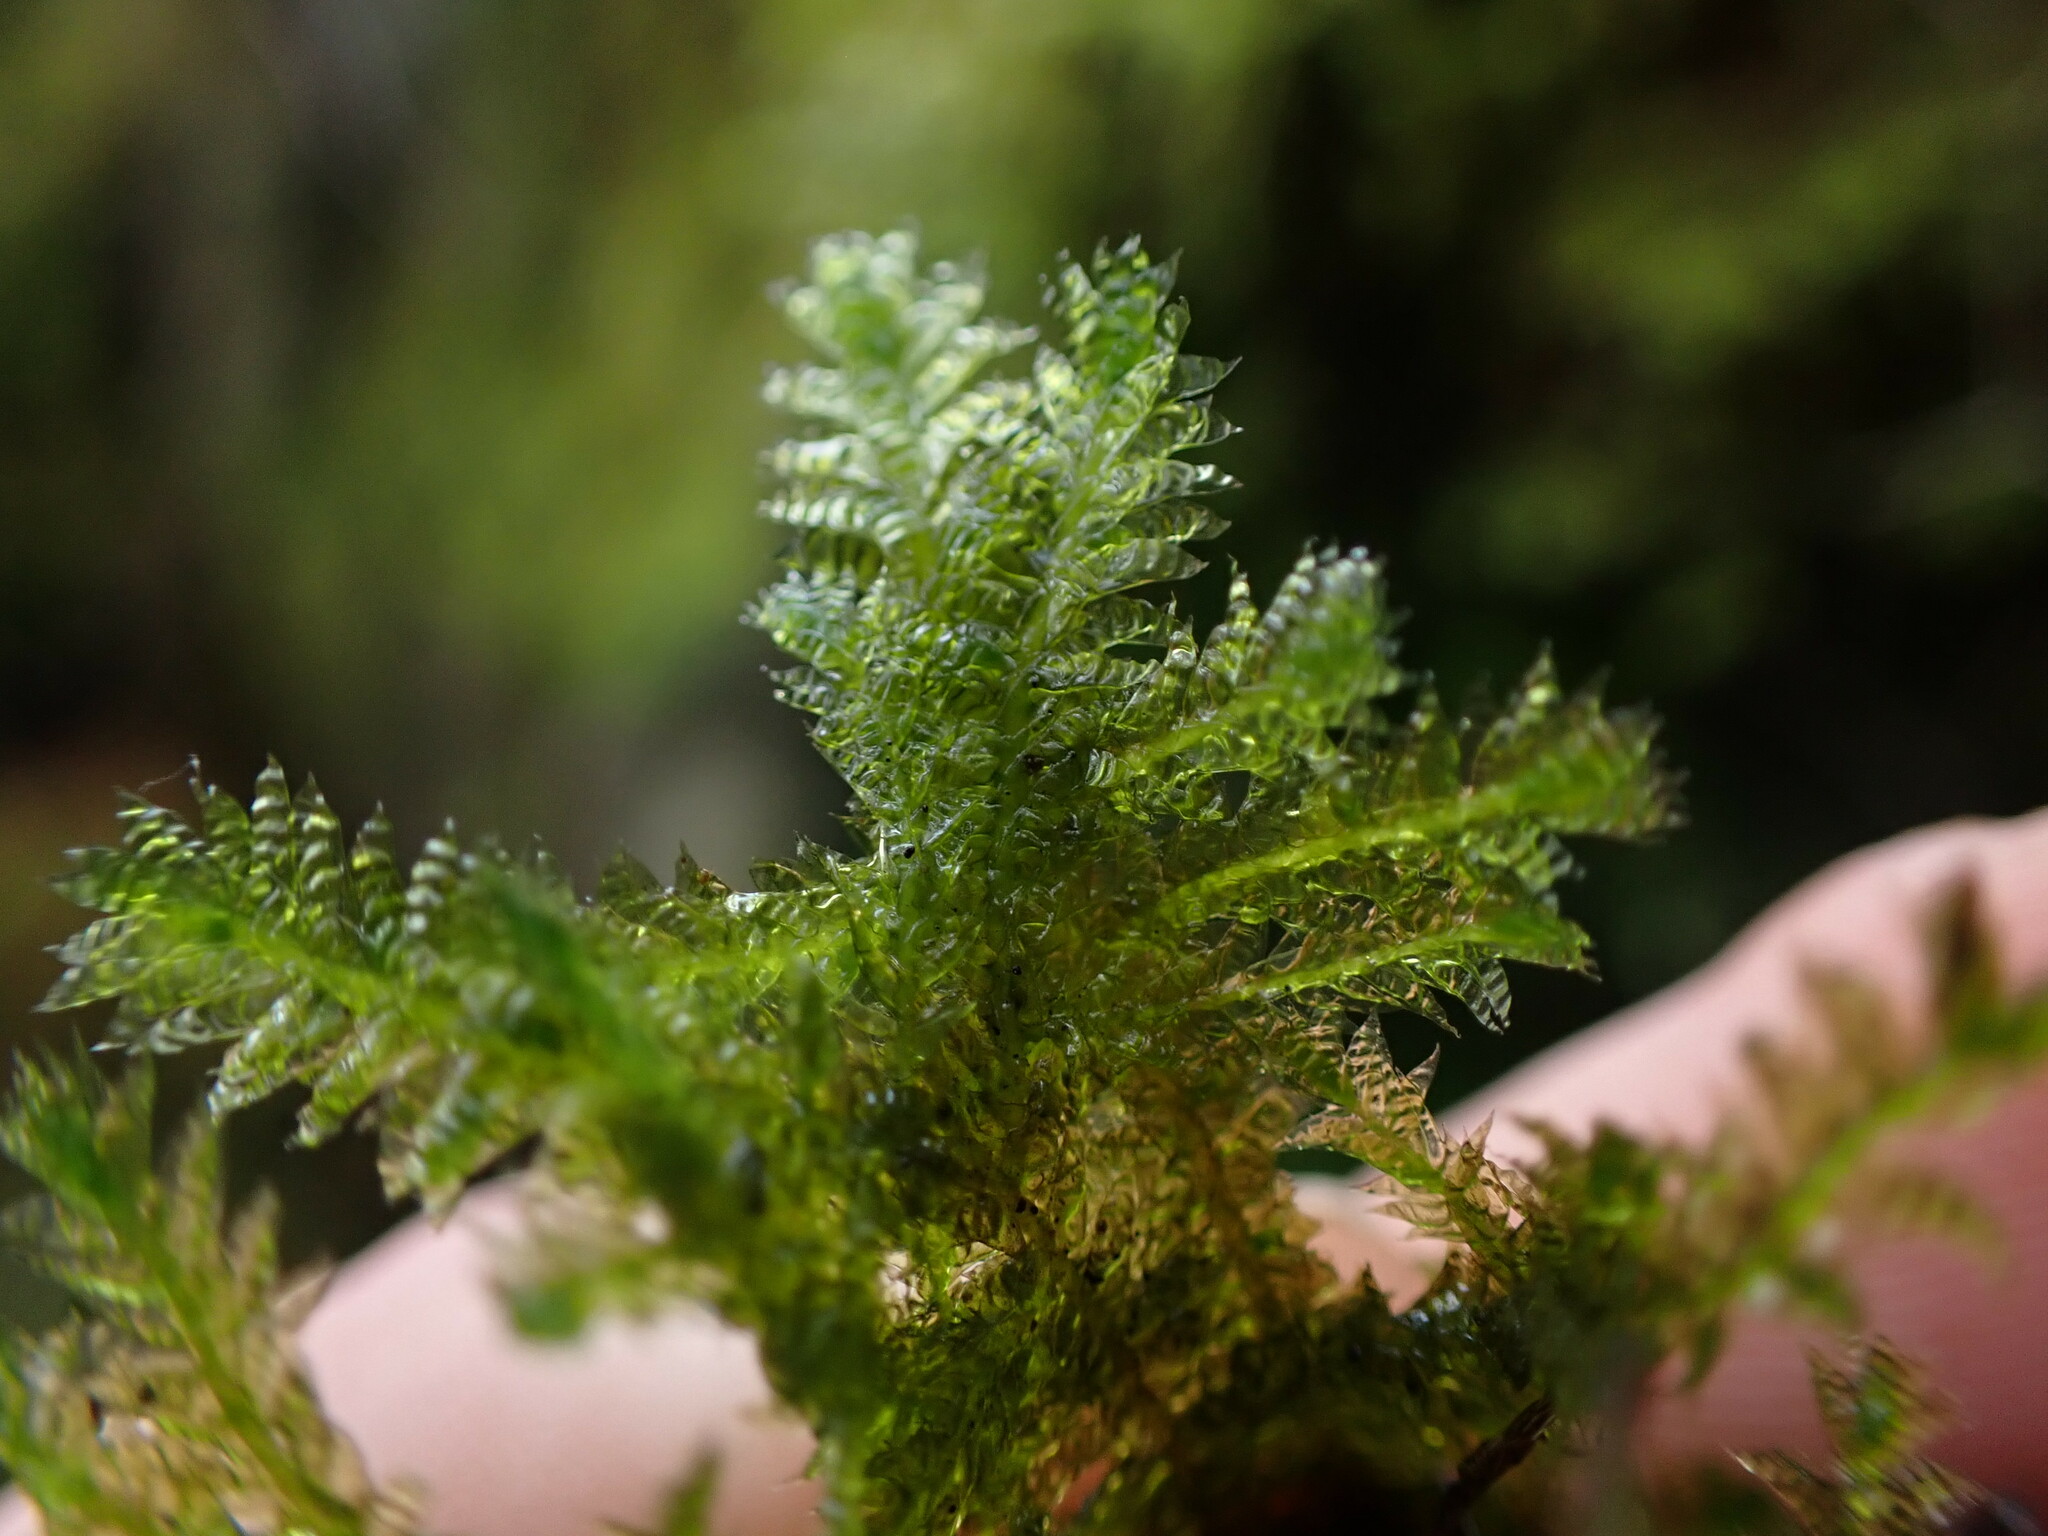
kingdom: Plantae
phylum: Bryophyta
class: Bryopsida
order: Hypnales
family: Neckeraceae
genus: Neckera
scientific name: Neckera douglasii
